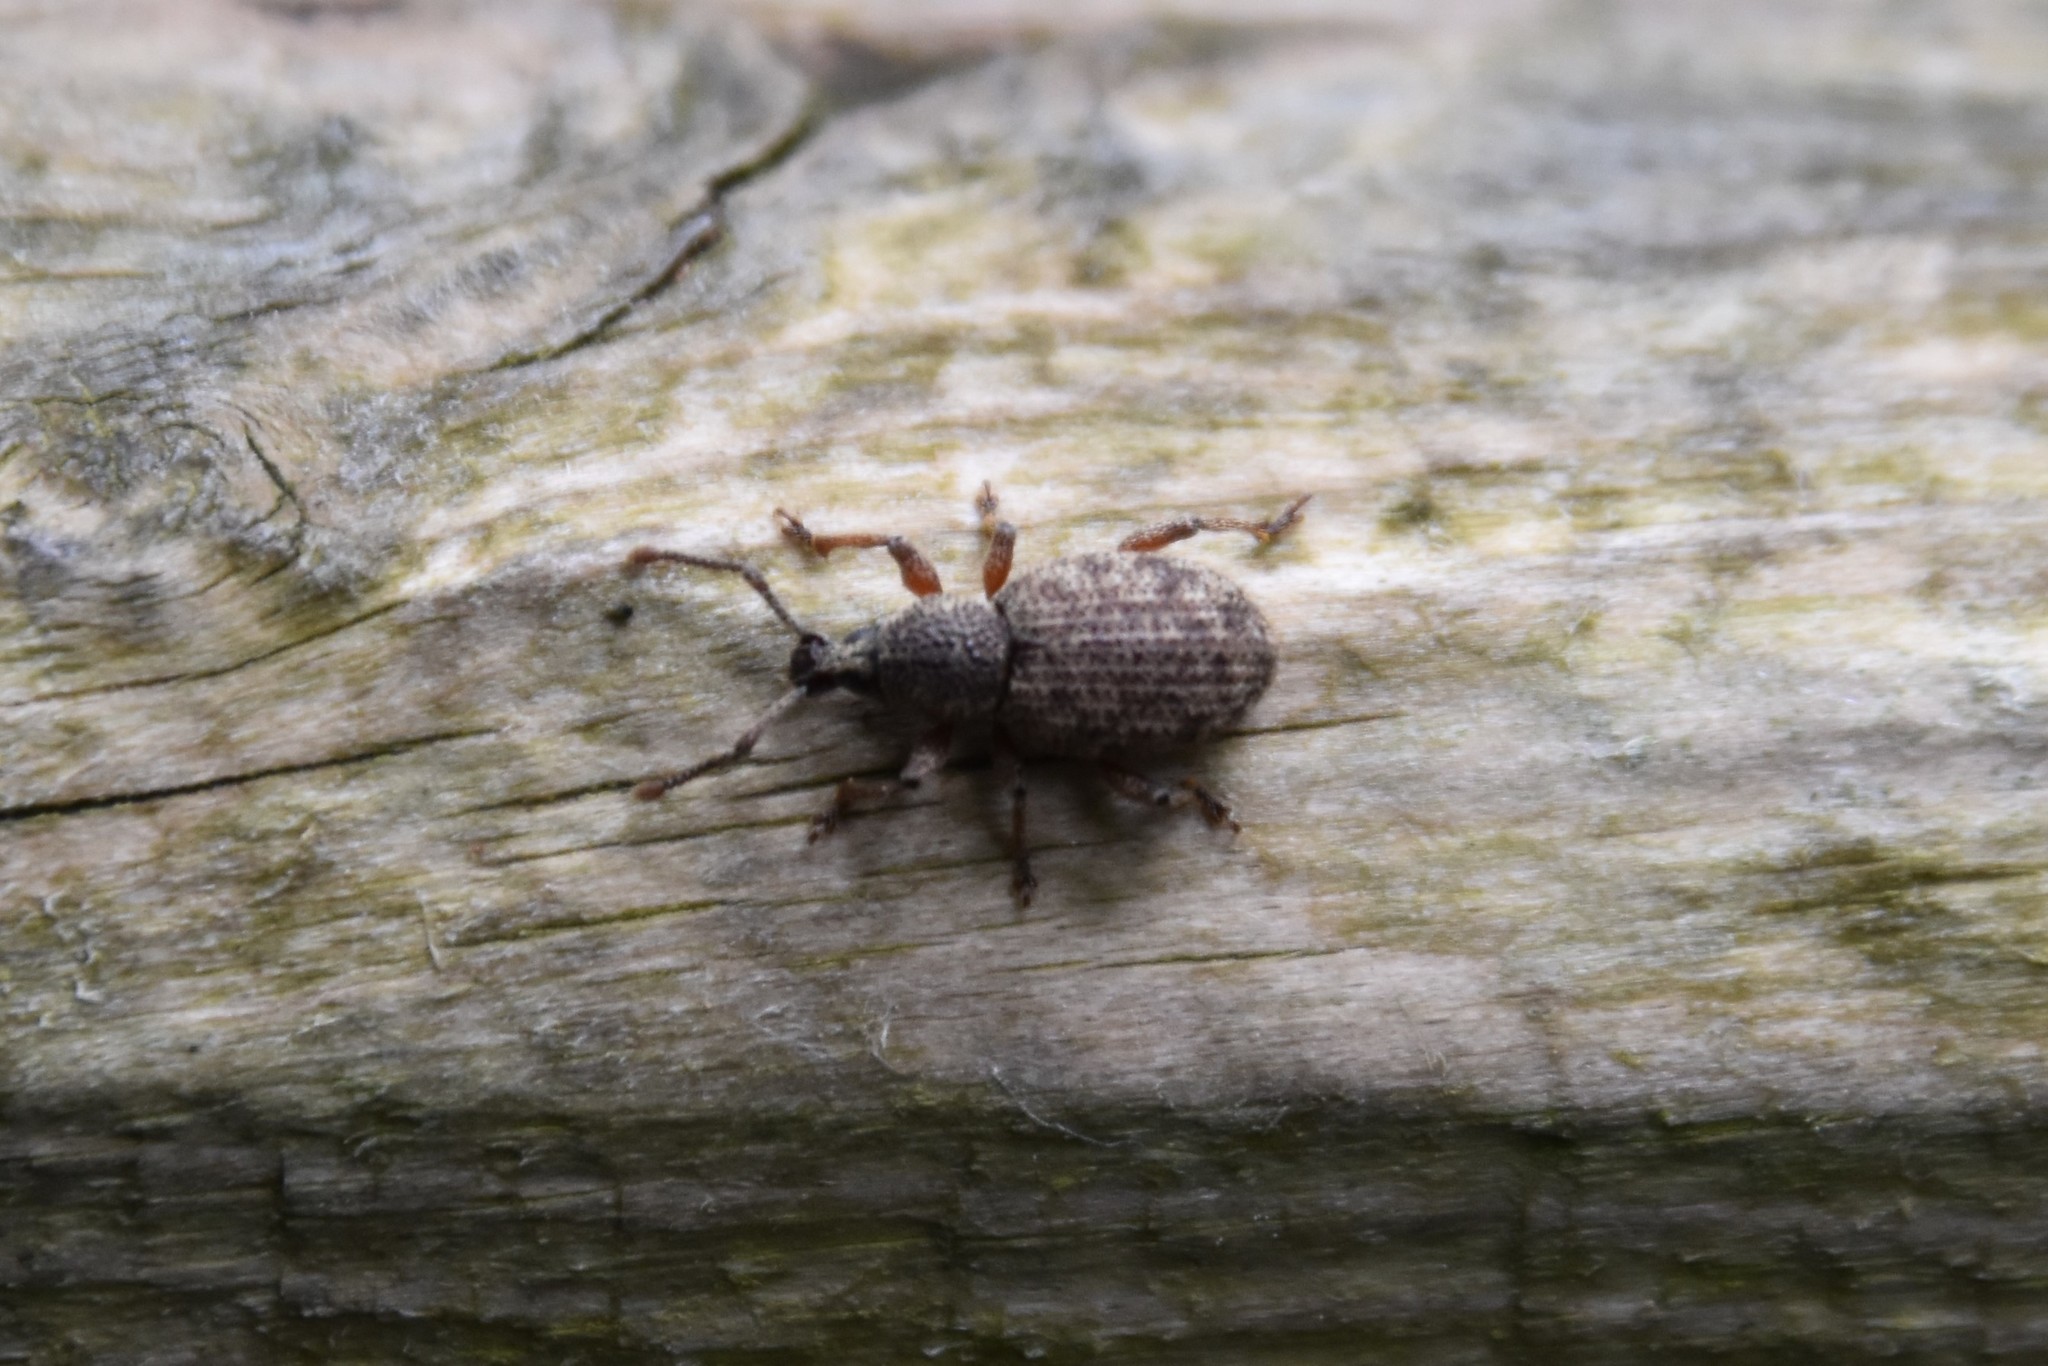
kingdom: Animalia
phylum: Arthropoda
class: Insecta
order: Coleoptera
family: Curculionidae
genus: Otiorhynchus
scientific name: Otiorhynchus singularis
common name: Clay-coloured weevil
